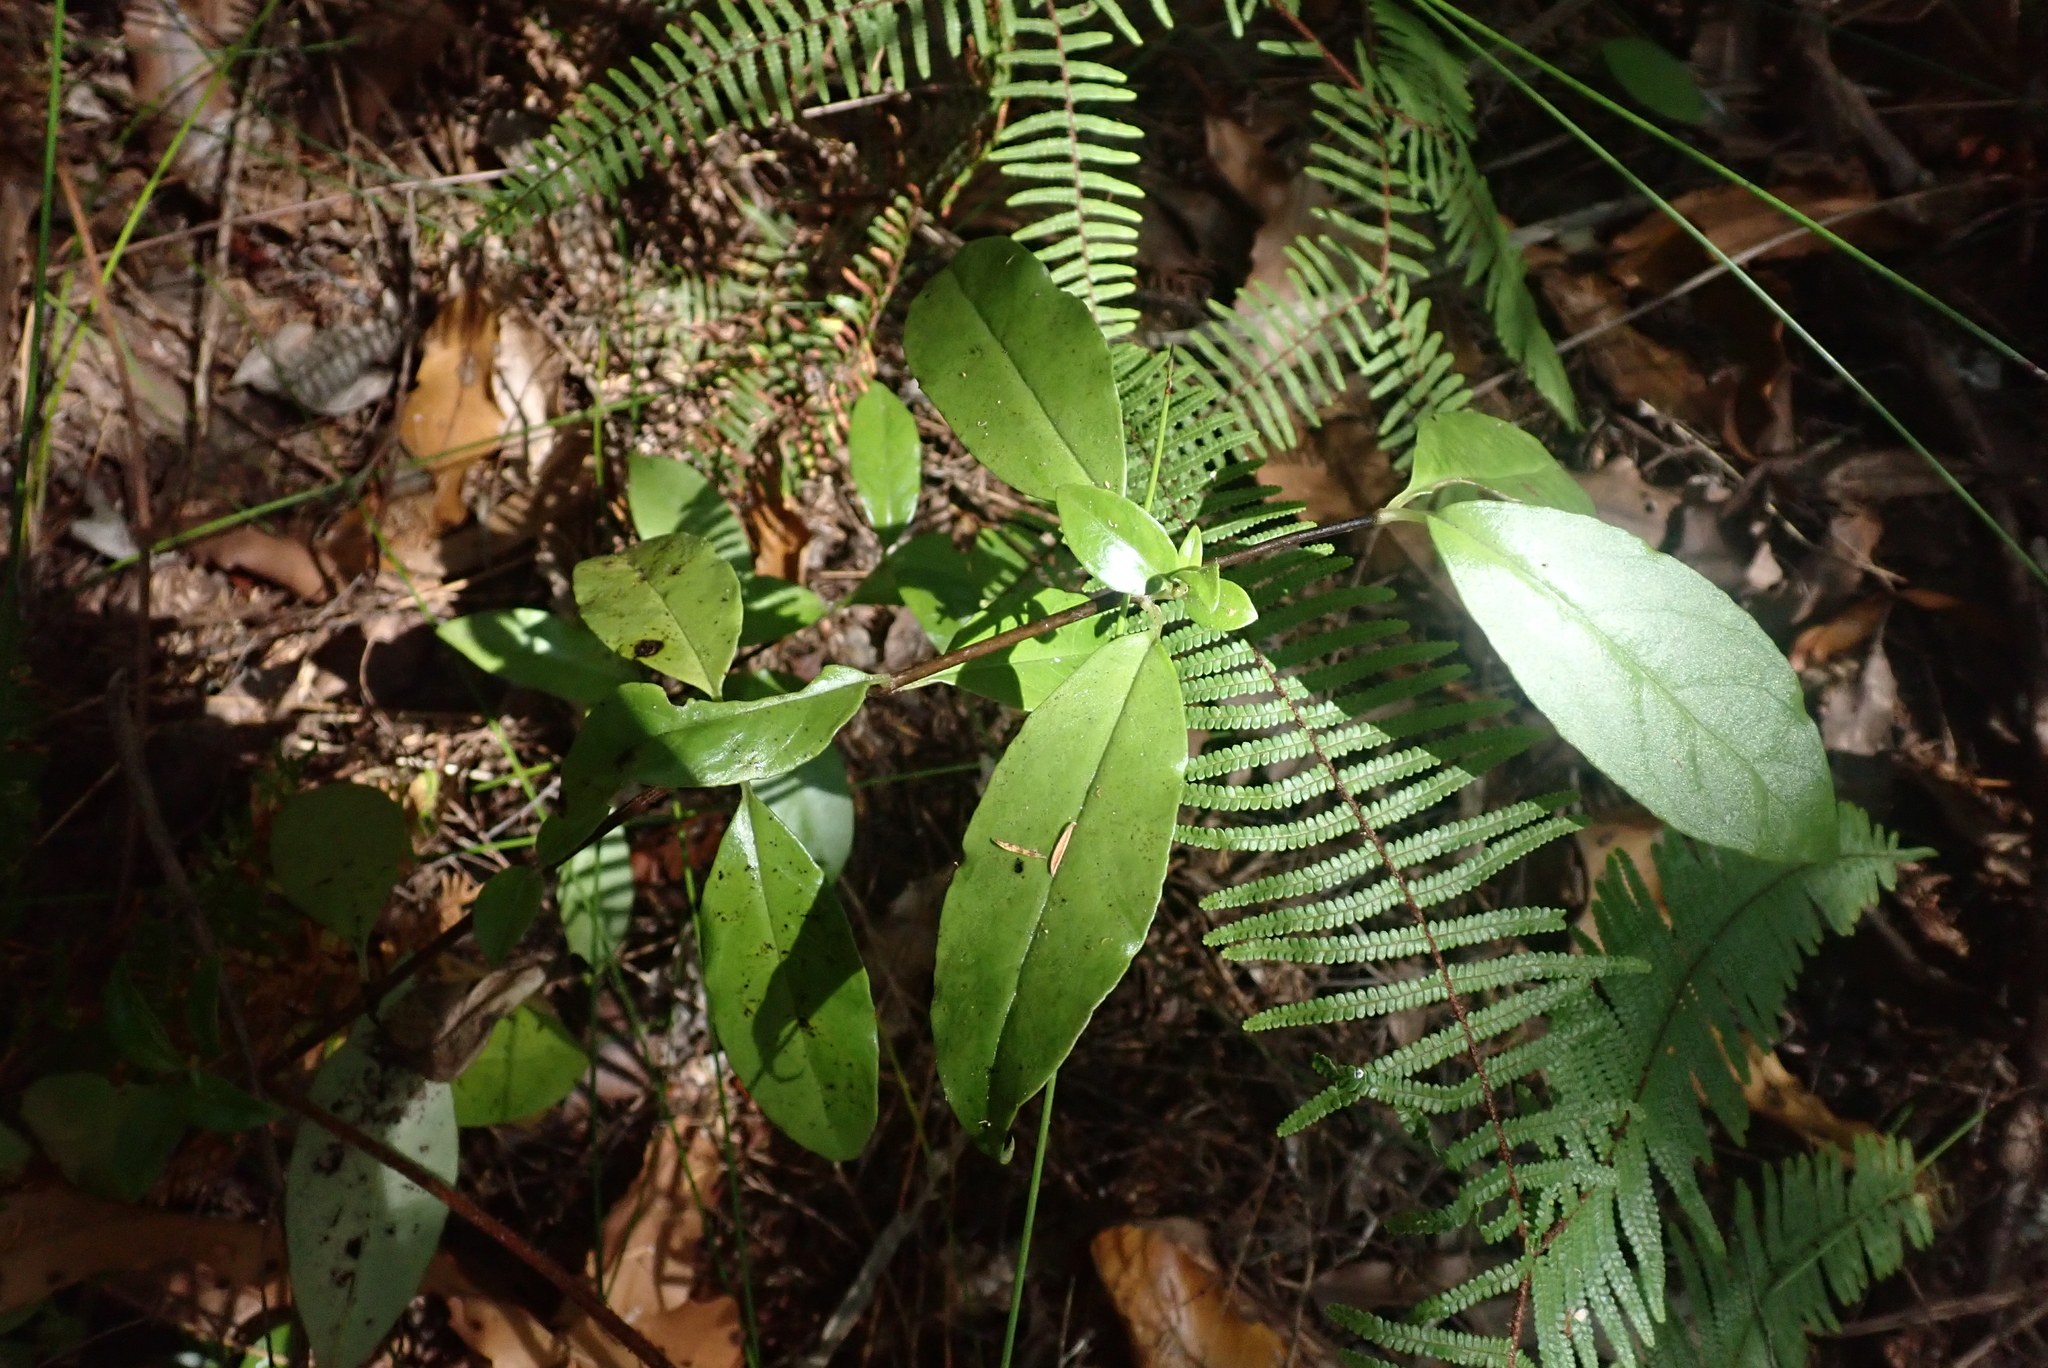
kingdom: Plantae
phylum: Tracheophyta
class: Polypodiopsida
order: Gleicheniales
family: Gleicheniaceae
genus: Gleichenia
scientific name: Gleichenia microphylla
